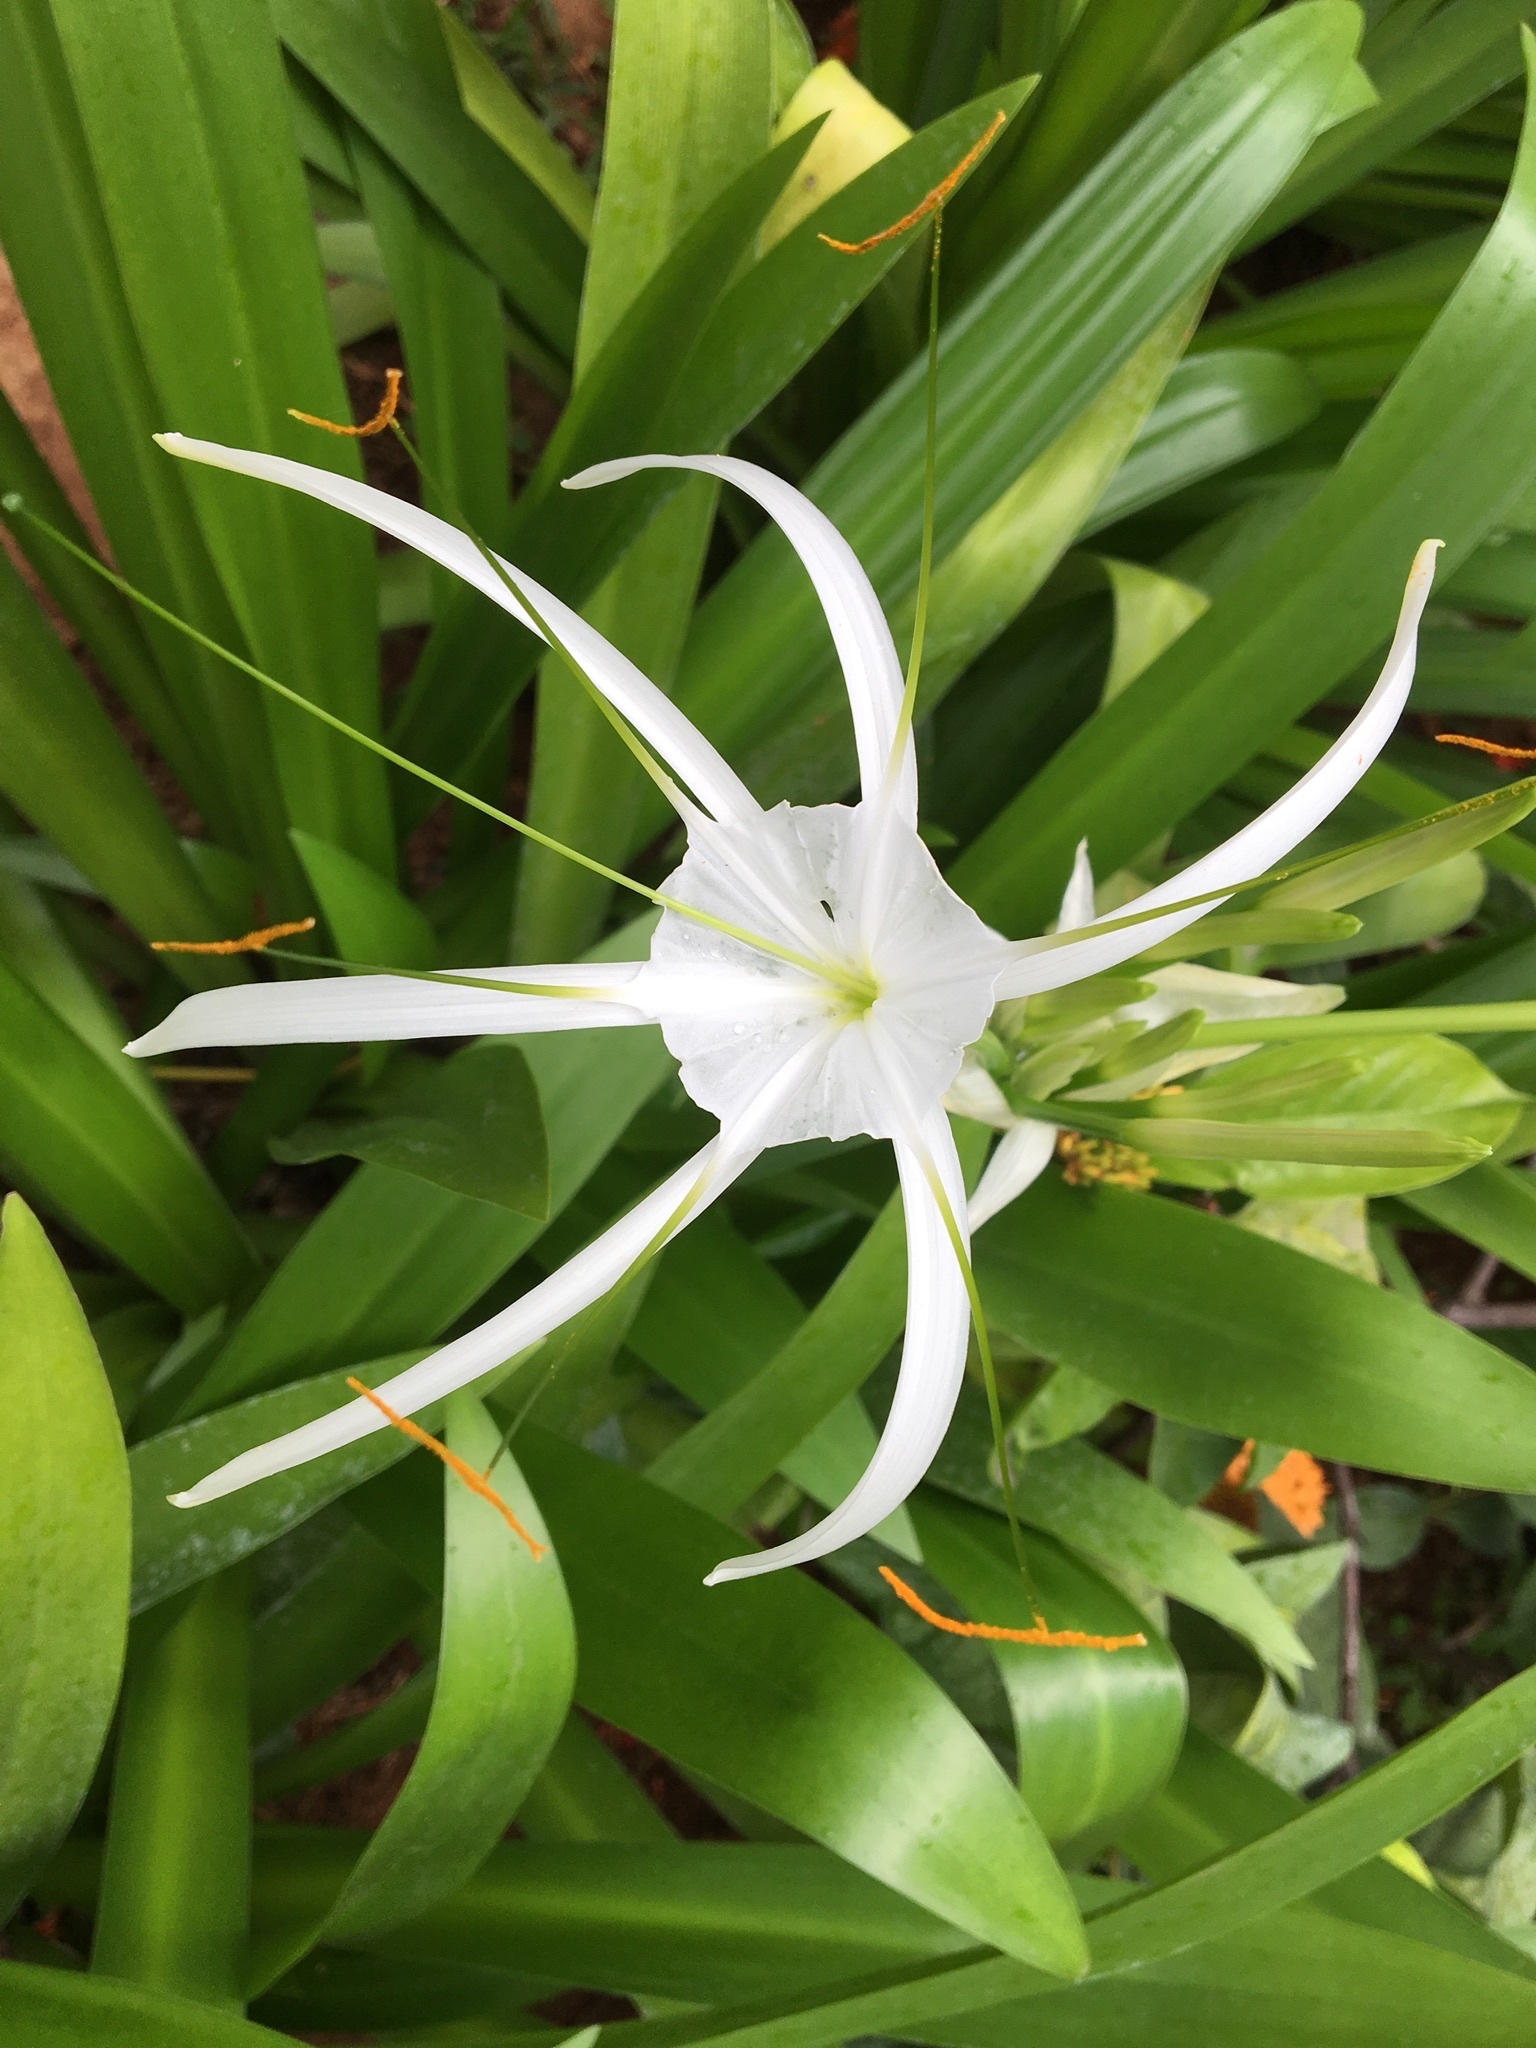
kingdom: Plantae
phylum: Tracheophyta
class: Liliopsida
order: Asparagales
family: Amaryllidaceae
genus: Hymenocallis
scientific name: Hymenocallis littoralis
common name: Beach spiderlily
